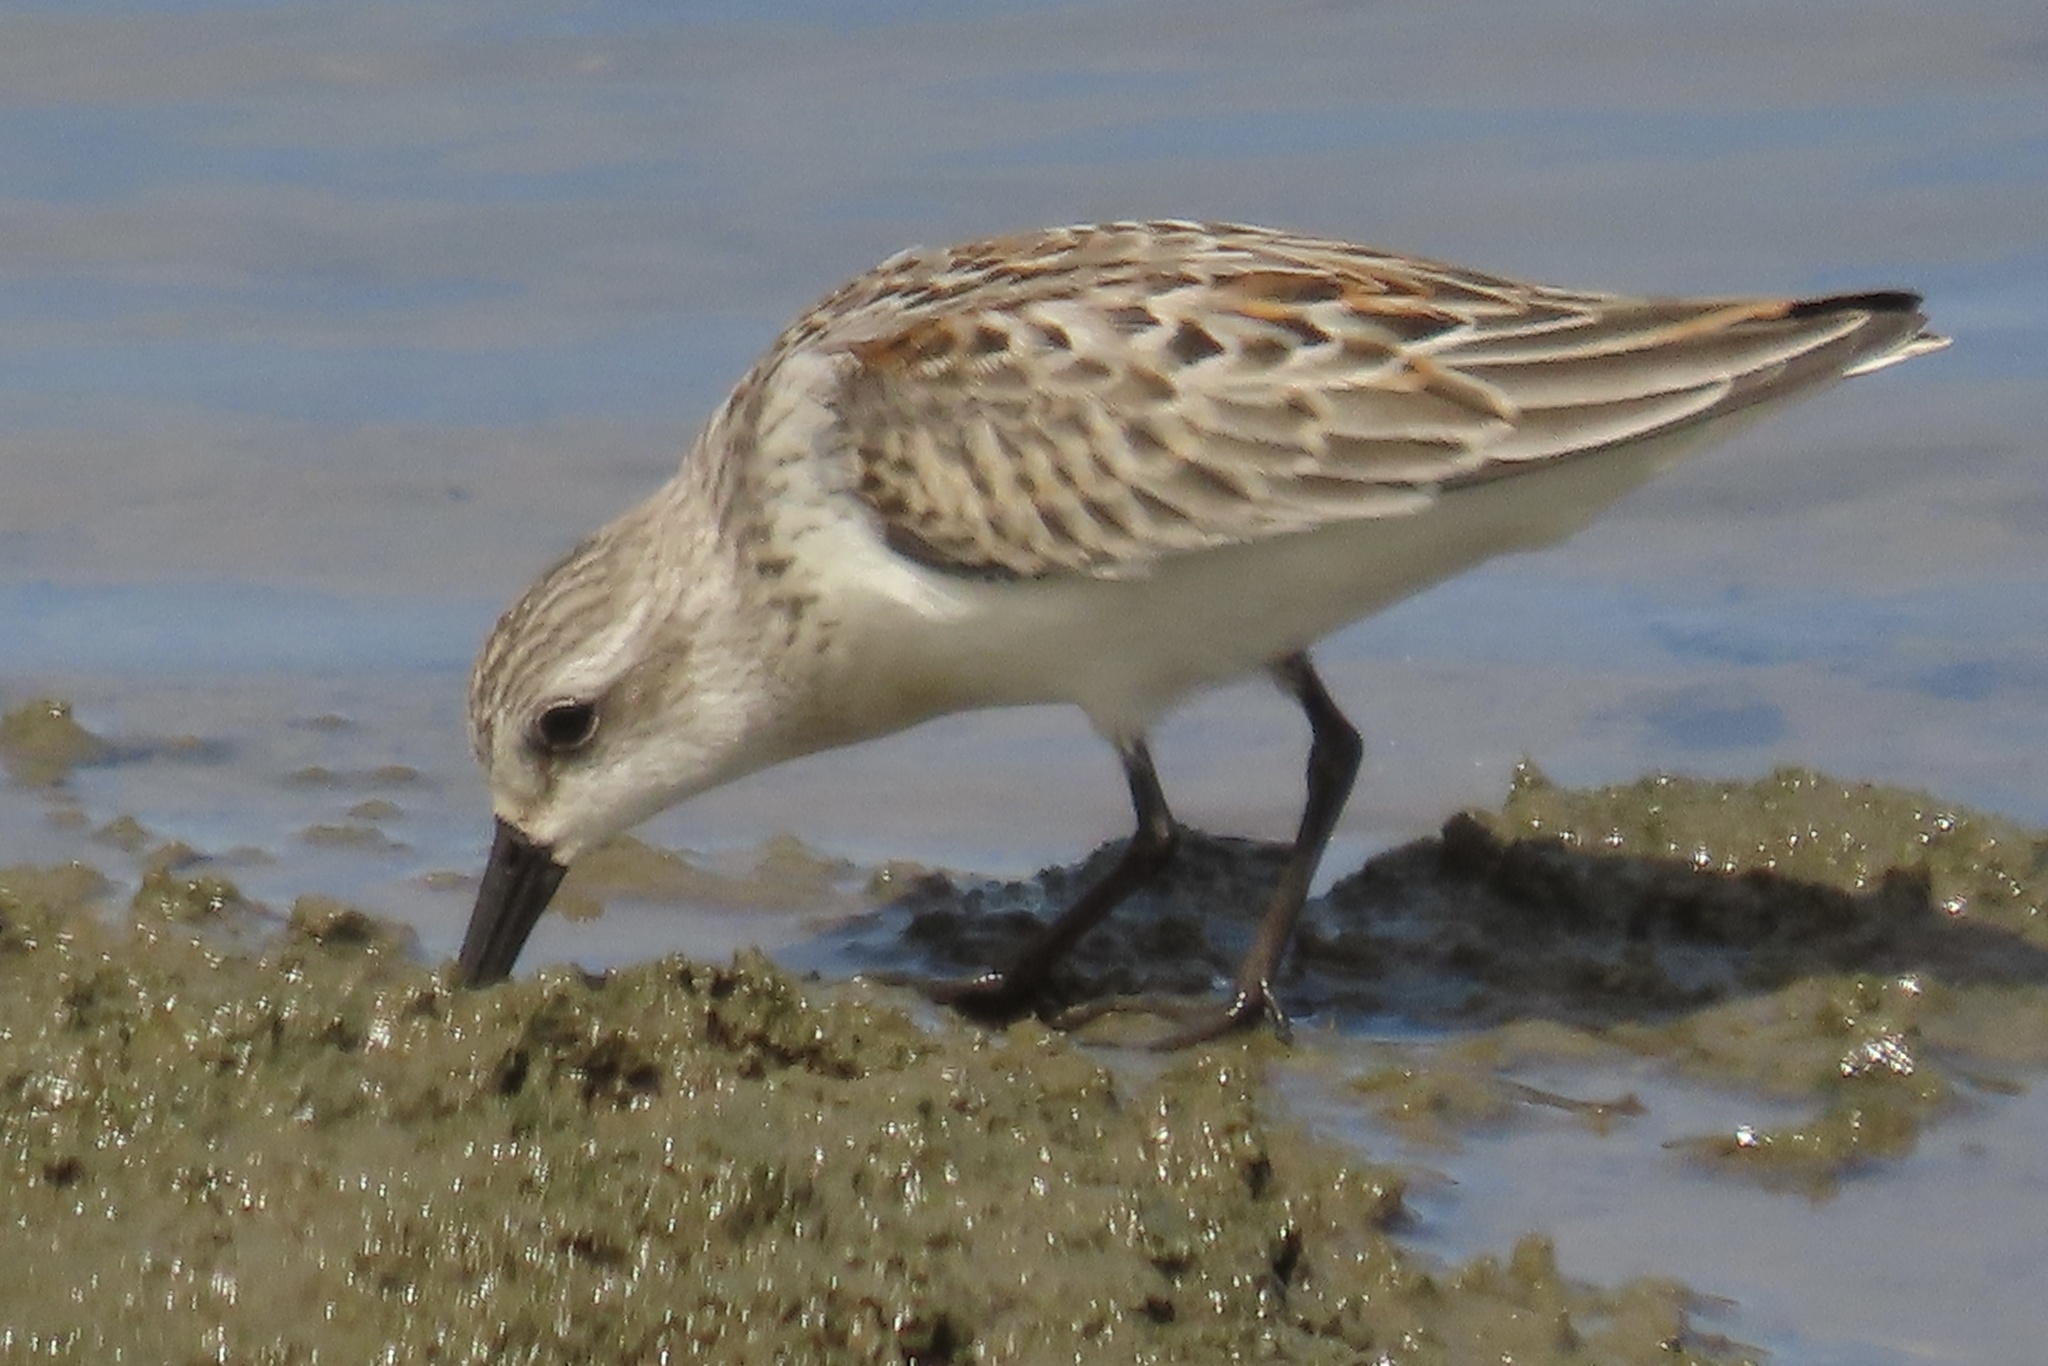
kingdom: Animalia
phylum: Chordata
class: Aves
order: Charadriiformes
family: Scolopacidae
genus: Calidris
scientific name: Calidris mauri
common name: Western sandpiper
